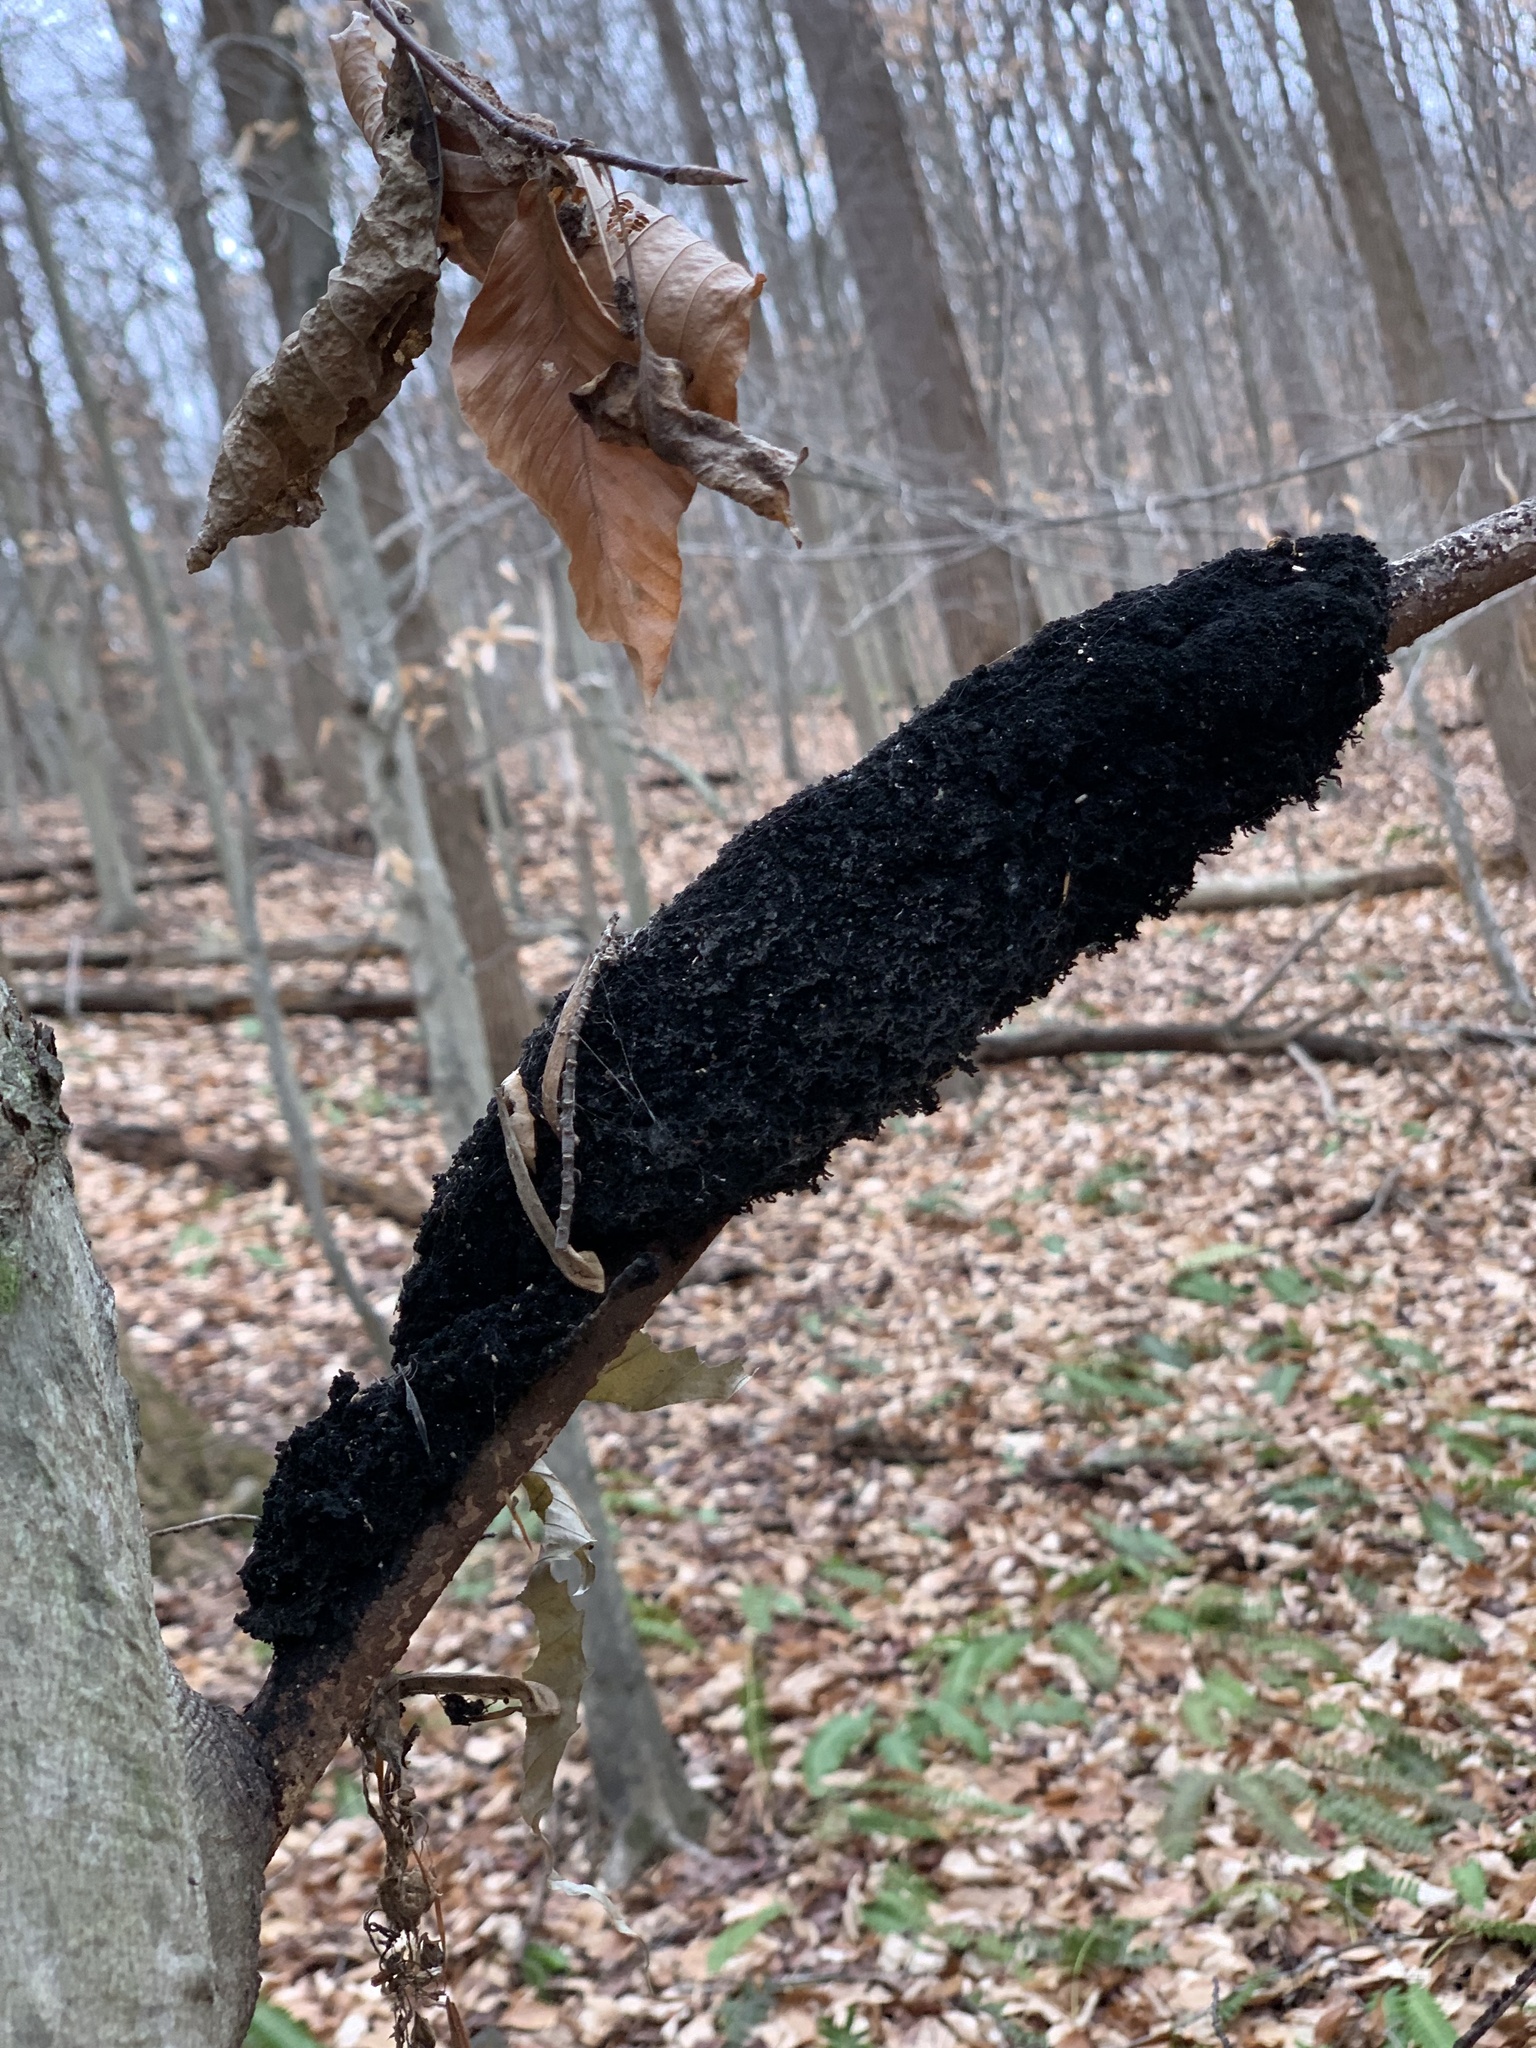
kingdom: Fungi
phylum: Ascomycota
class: Dothideomycetes
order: Capnodiales
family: Capnodiaceae
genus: Scorias
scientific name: Scorias spongiosa
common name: Black sooty mold
